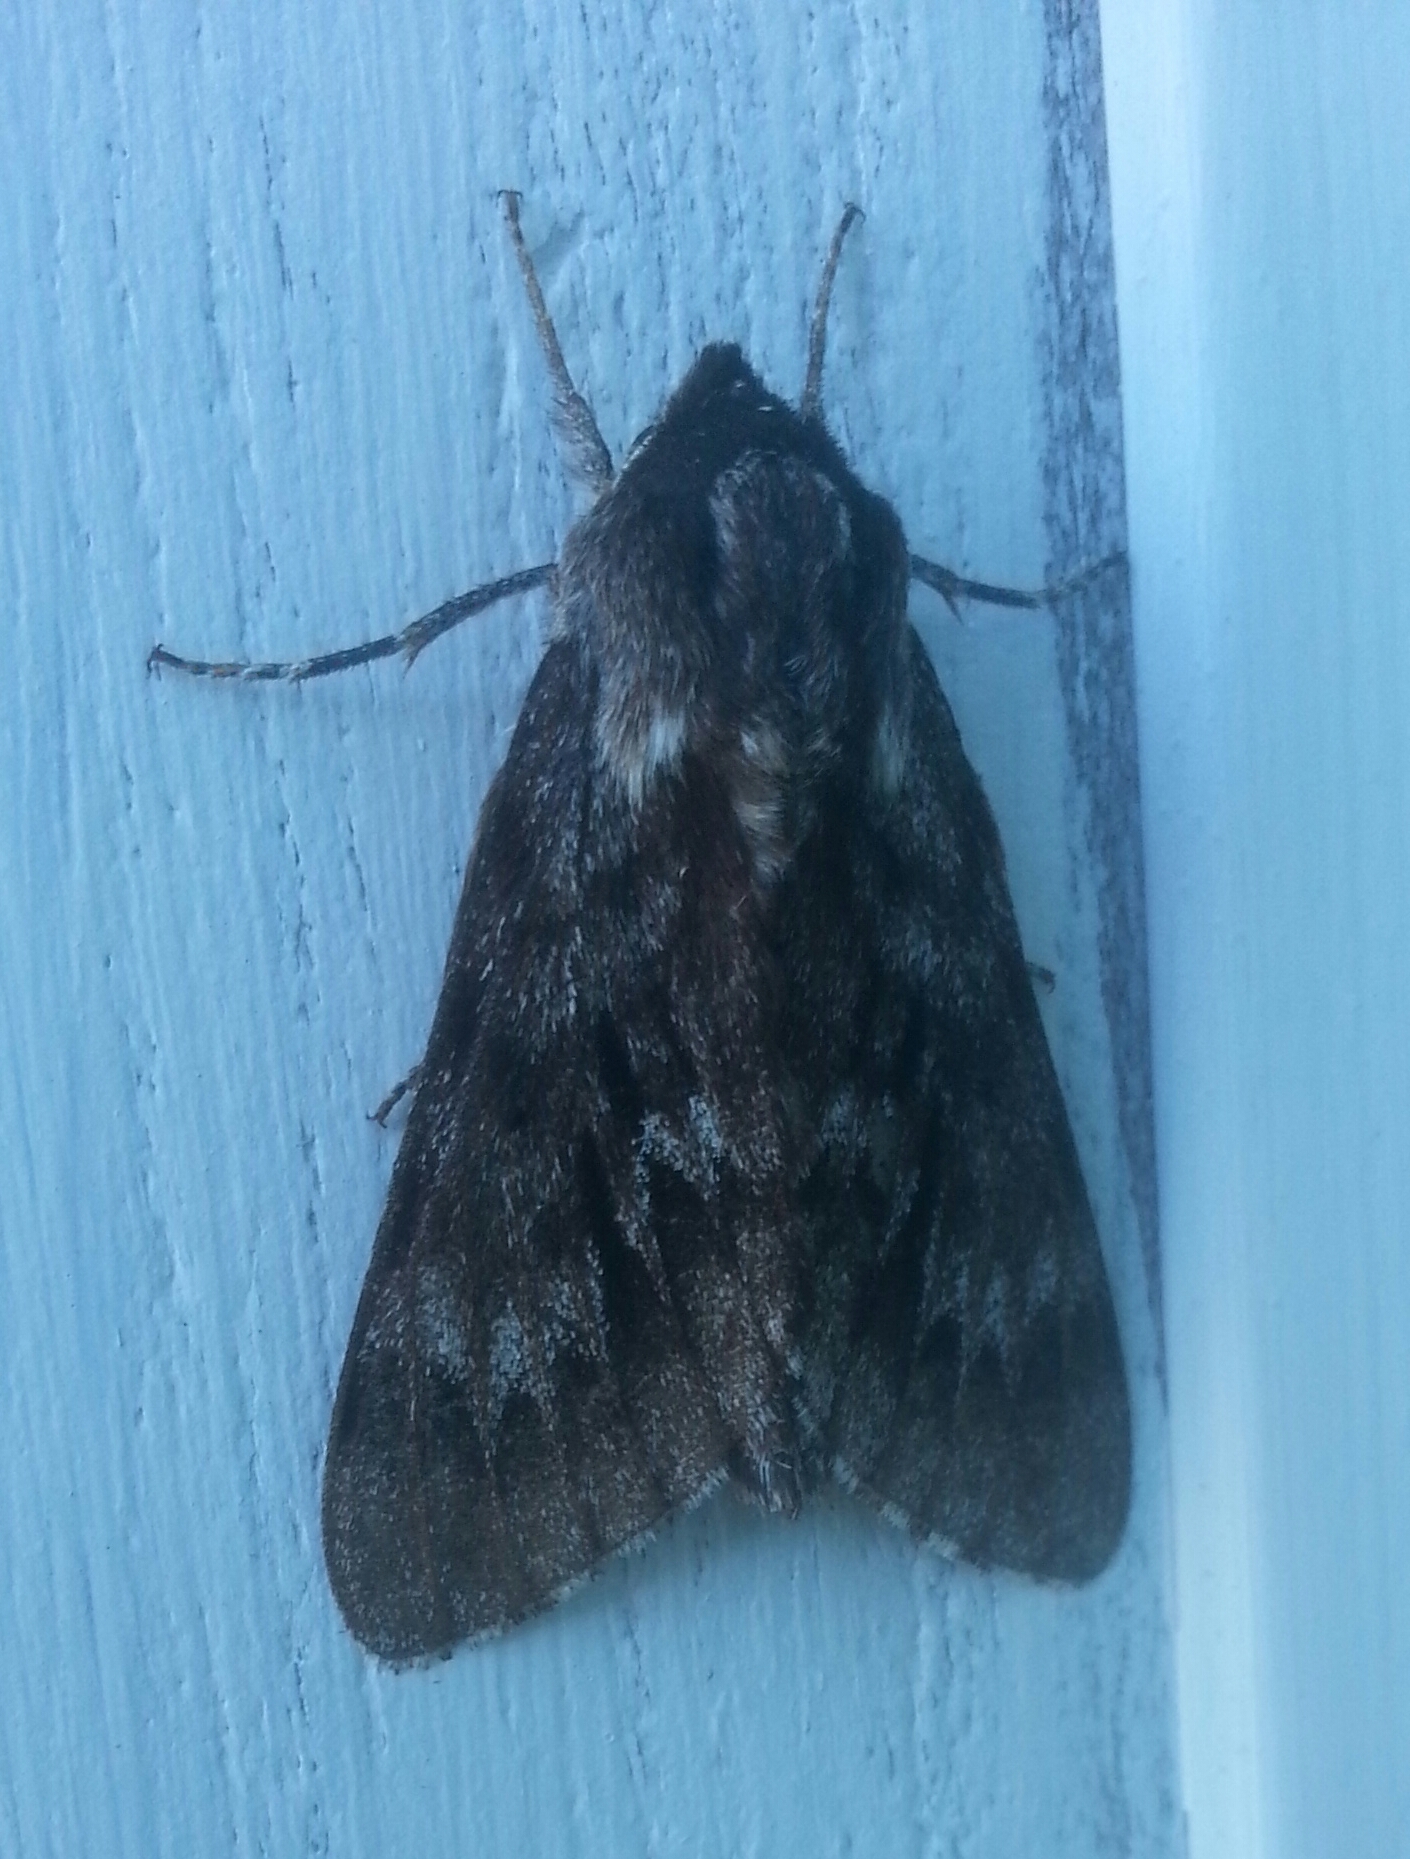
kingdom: Animalia
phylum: Arthropoda
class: Insecta
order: Lepidoptera
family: Sphingidae
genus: Lapara
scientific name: Lapara bombycoides
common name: Northern pine sphinx
